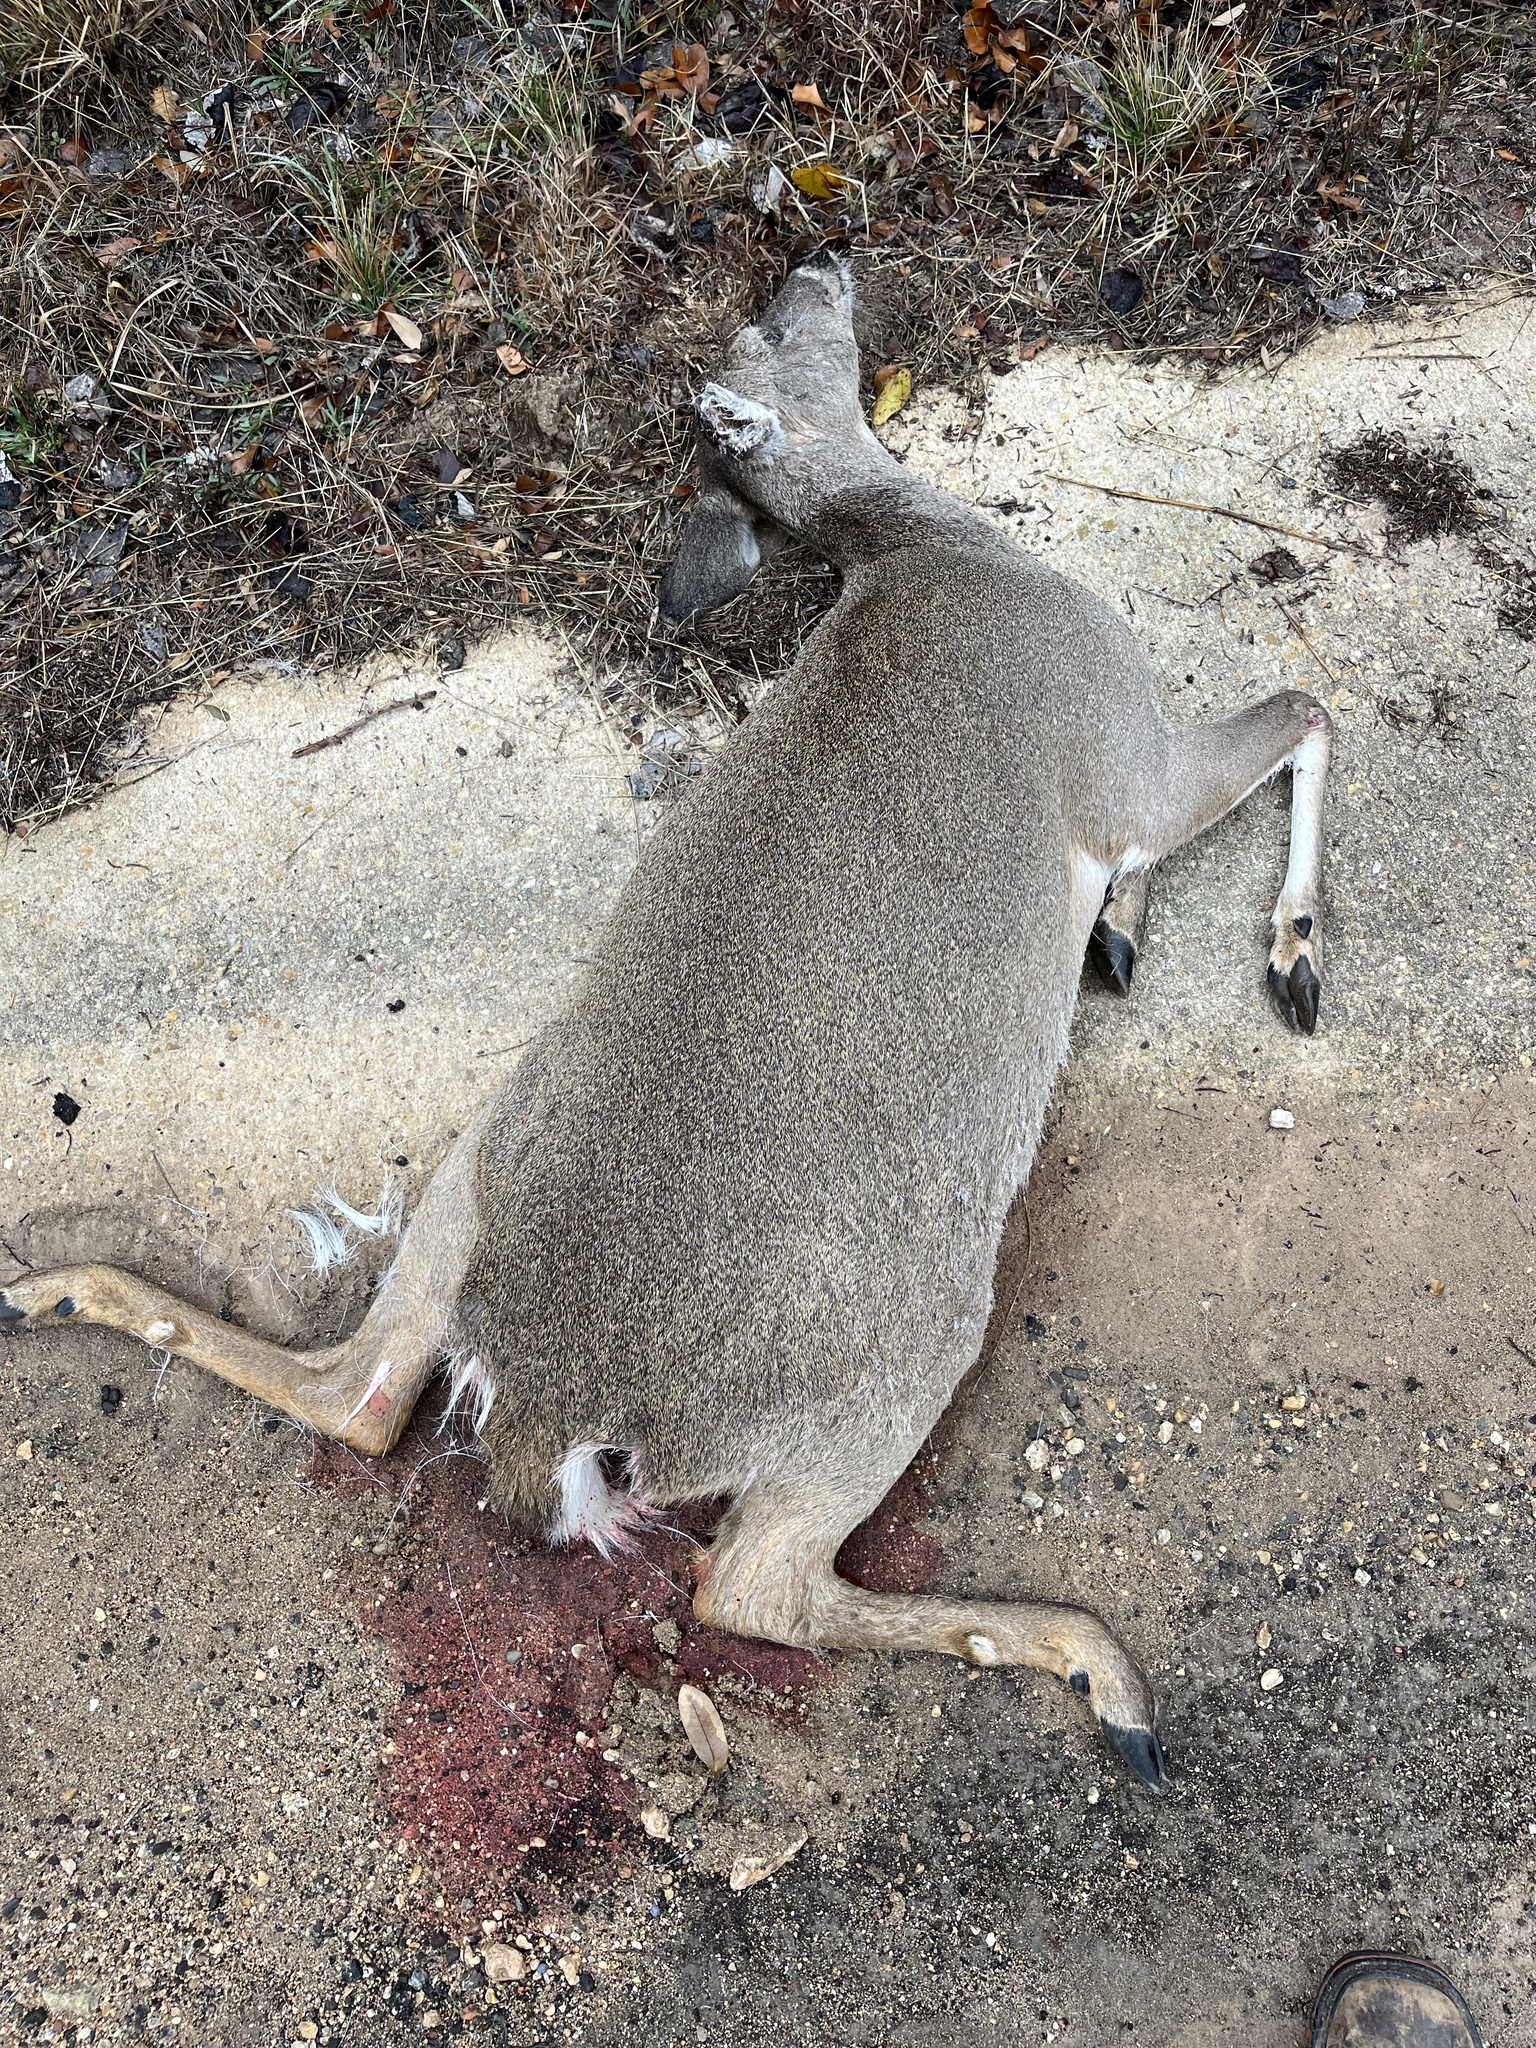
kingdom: Animalia
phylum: Chordata
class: Mammalia
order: Artiodactyla
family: Cervidae
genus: Odocoileus
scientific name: Odocoileus virginianus
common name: White-tailed deer
